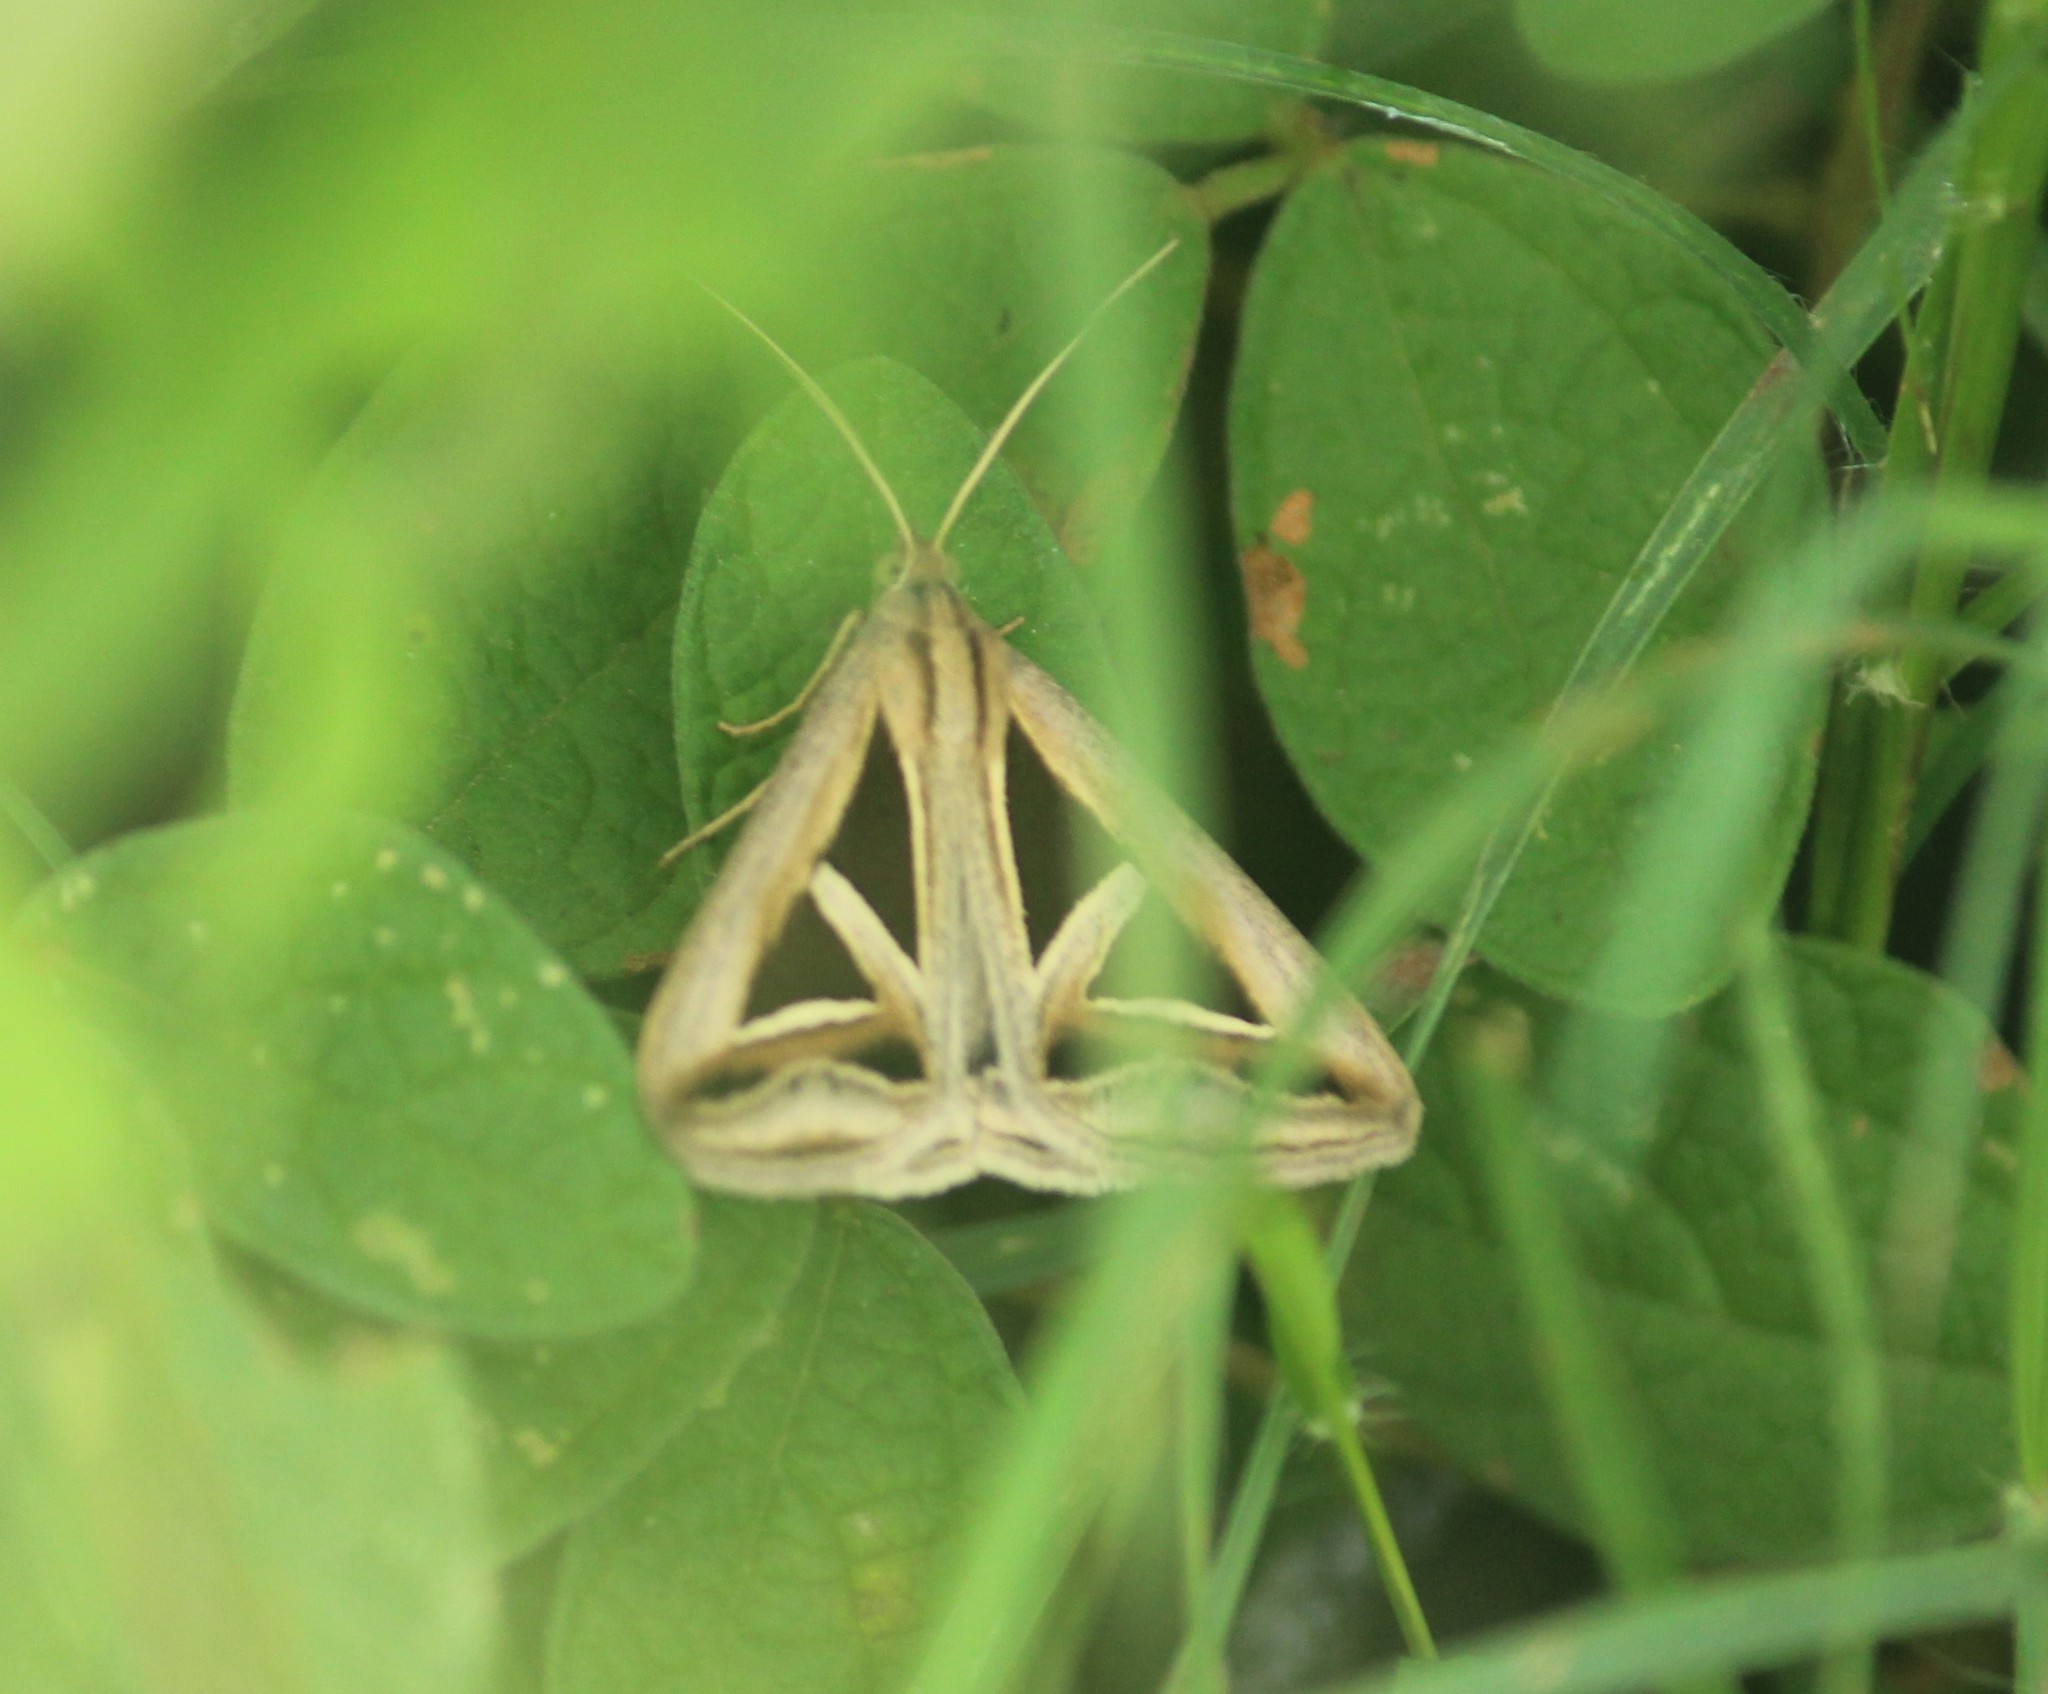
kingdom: Animalia
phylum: Arthropoda
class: Insecta
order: Lepidoptera
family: Erebidae
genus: Trigonodes
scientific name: Trigonodes hyppasia
